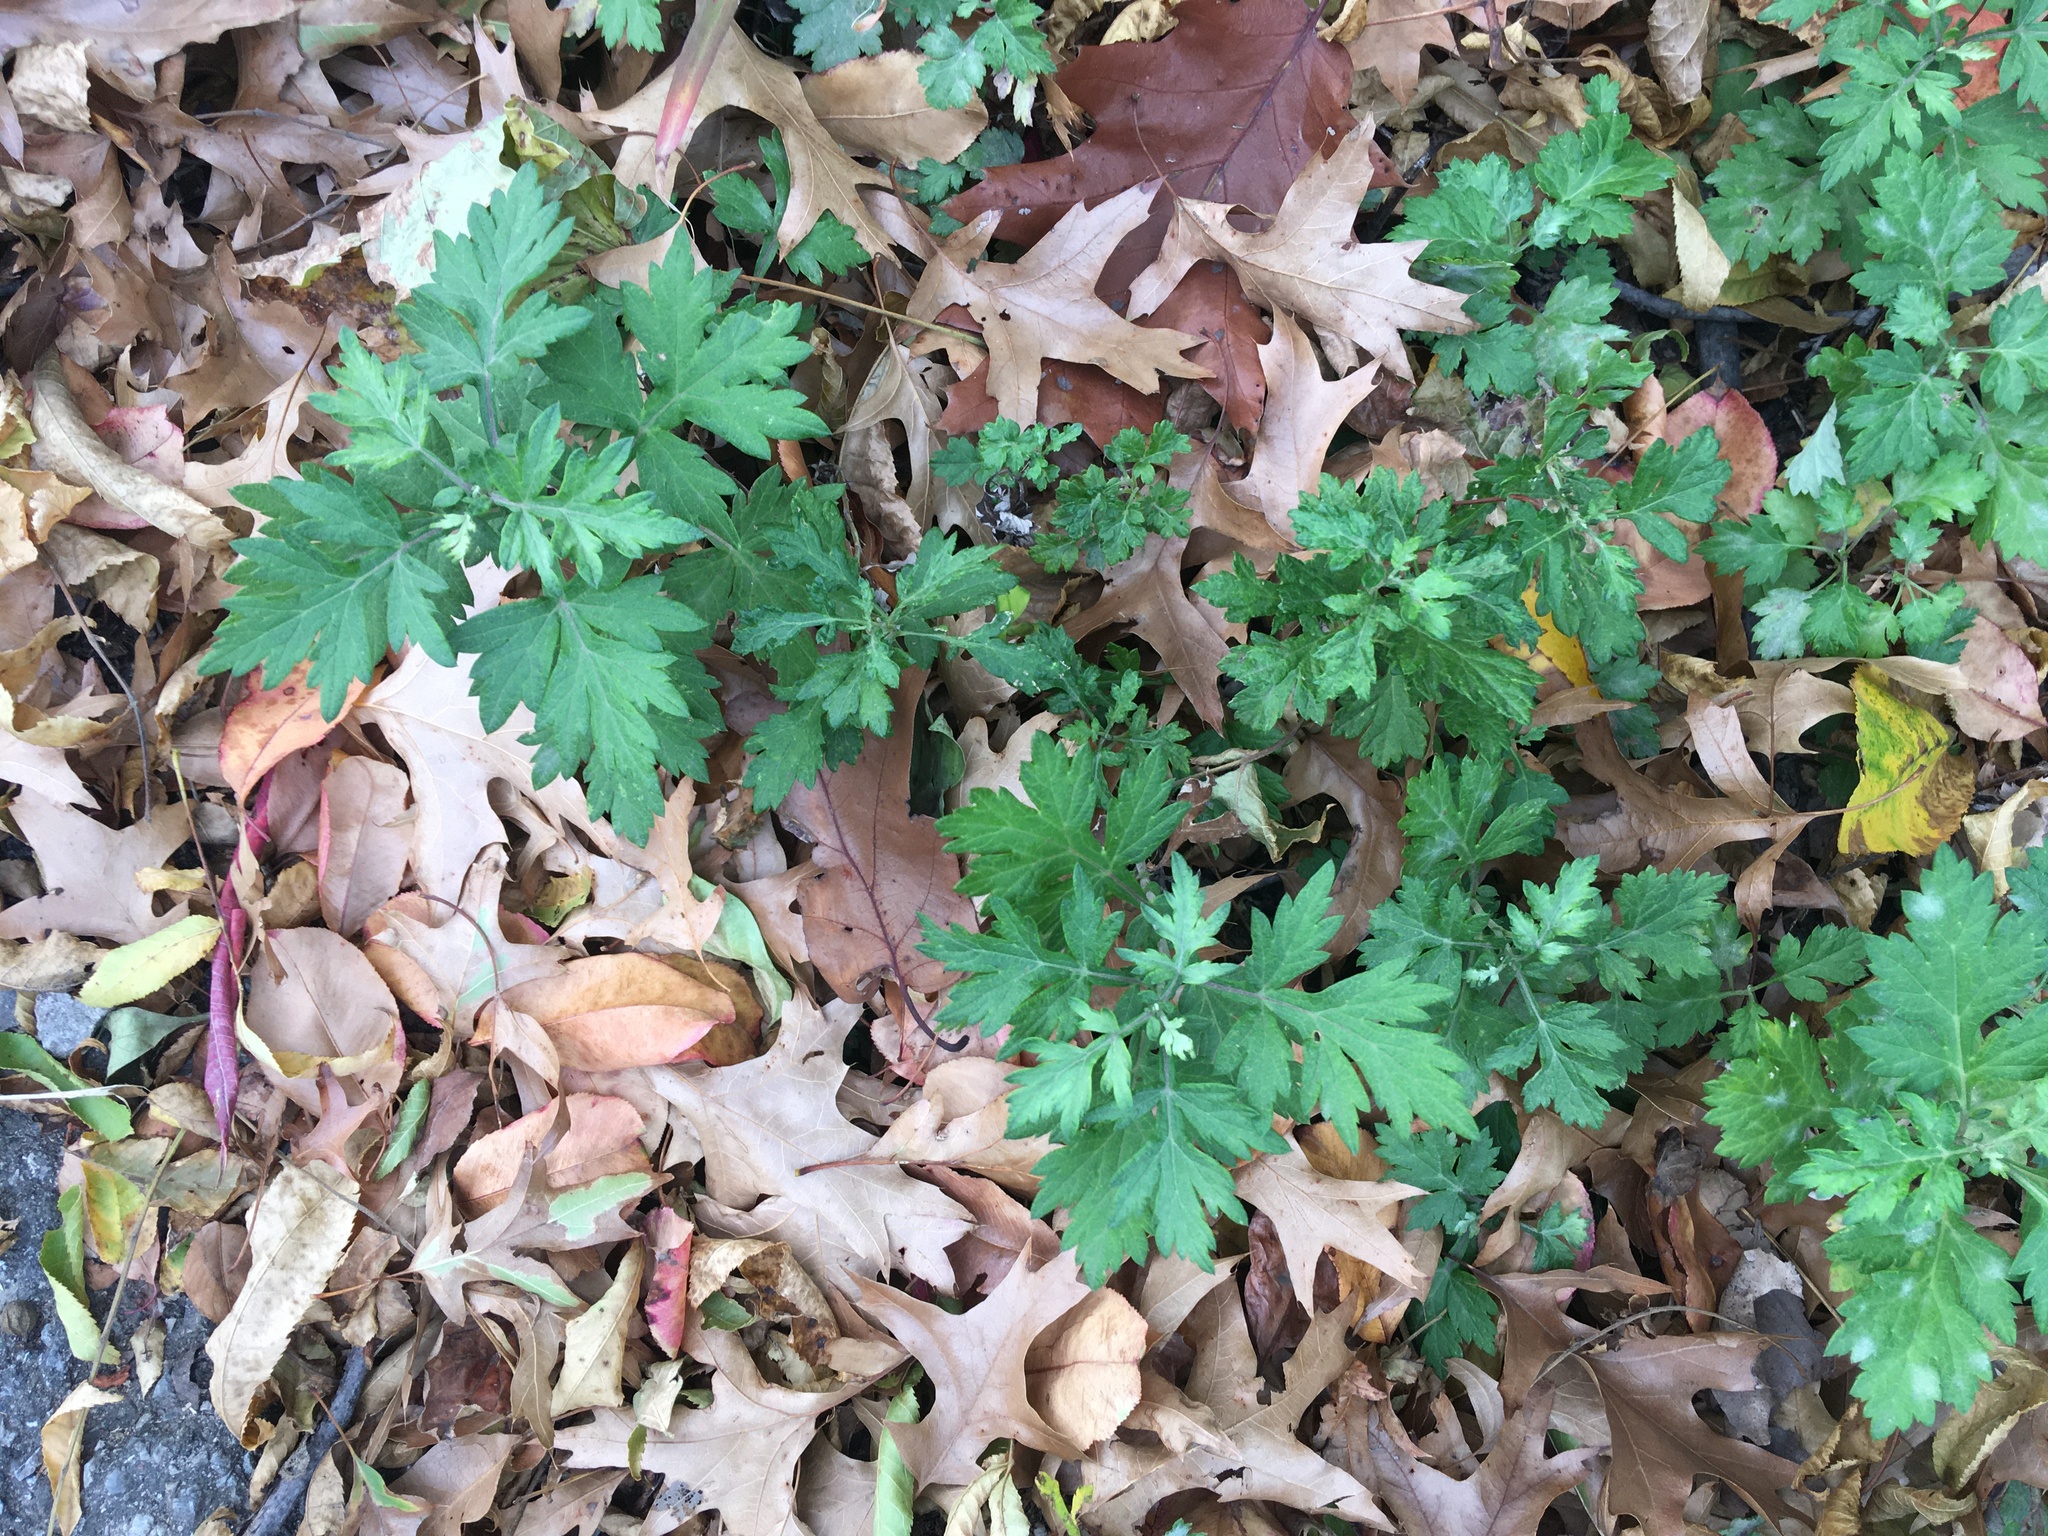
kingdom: Plantae
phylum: Tracheophyta
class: Magnoliopsida
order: Asterales
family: Asteraceae
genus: Artemisia
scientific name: Artemisia vulgaris
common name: Mugwort
